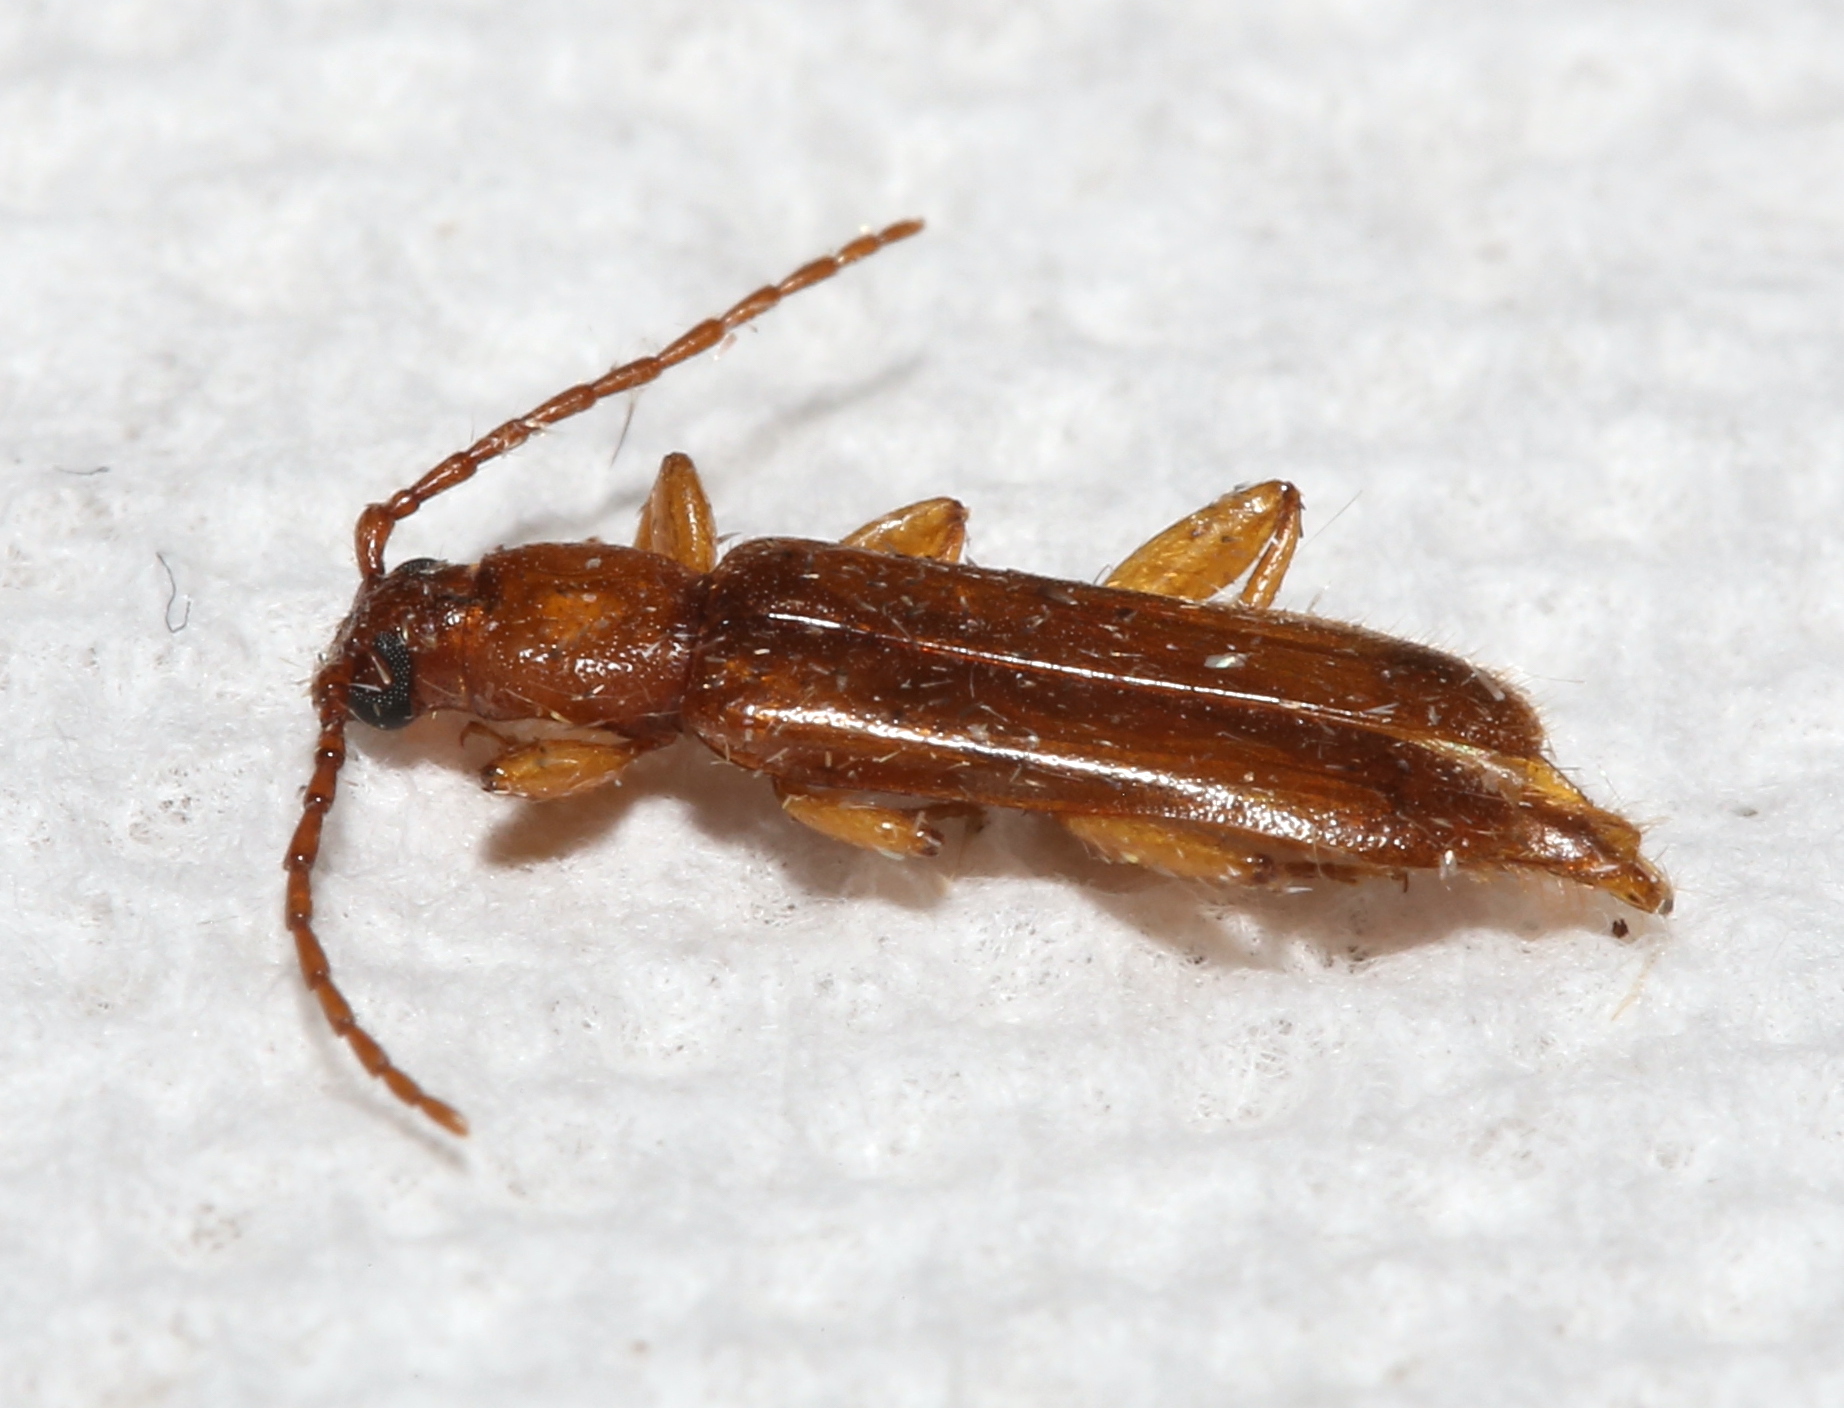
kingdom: Animalia
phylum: Arthropoda
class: Insecta
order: Coleoptera
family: Cerambycidae
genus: Smodicum
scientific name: Smodicum cucujiforme
